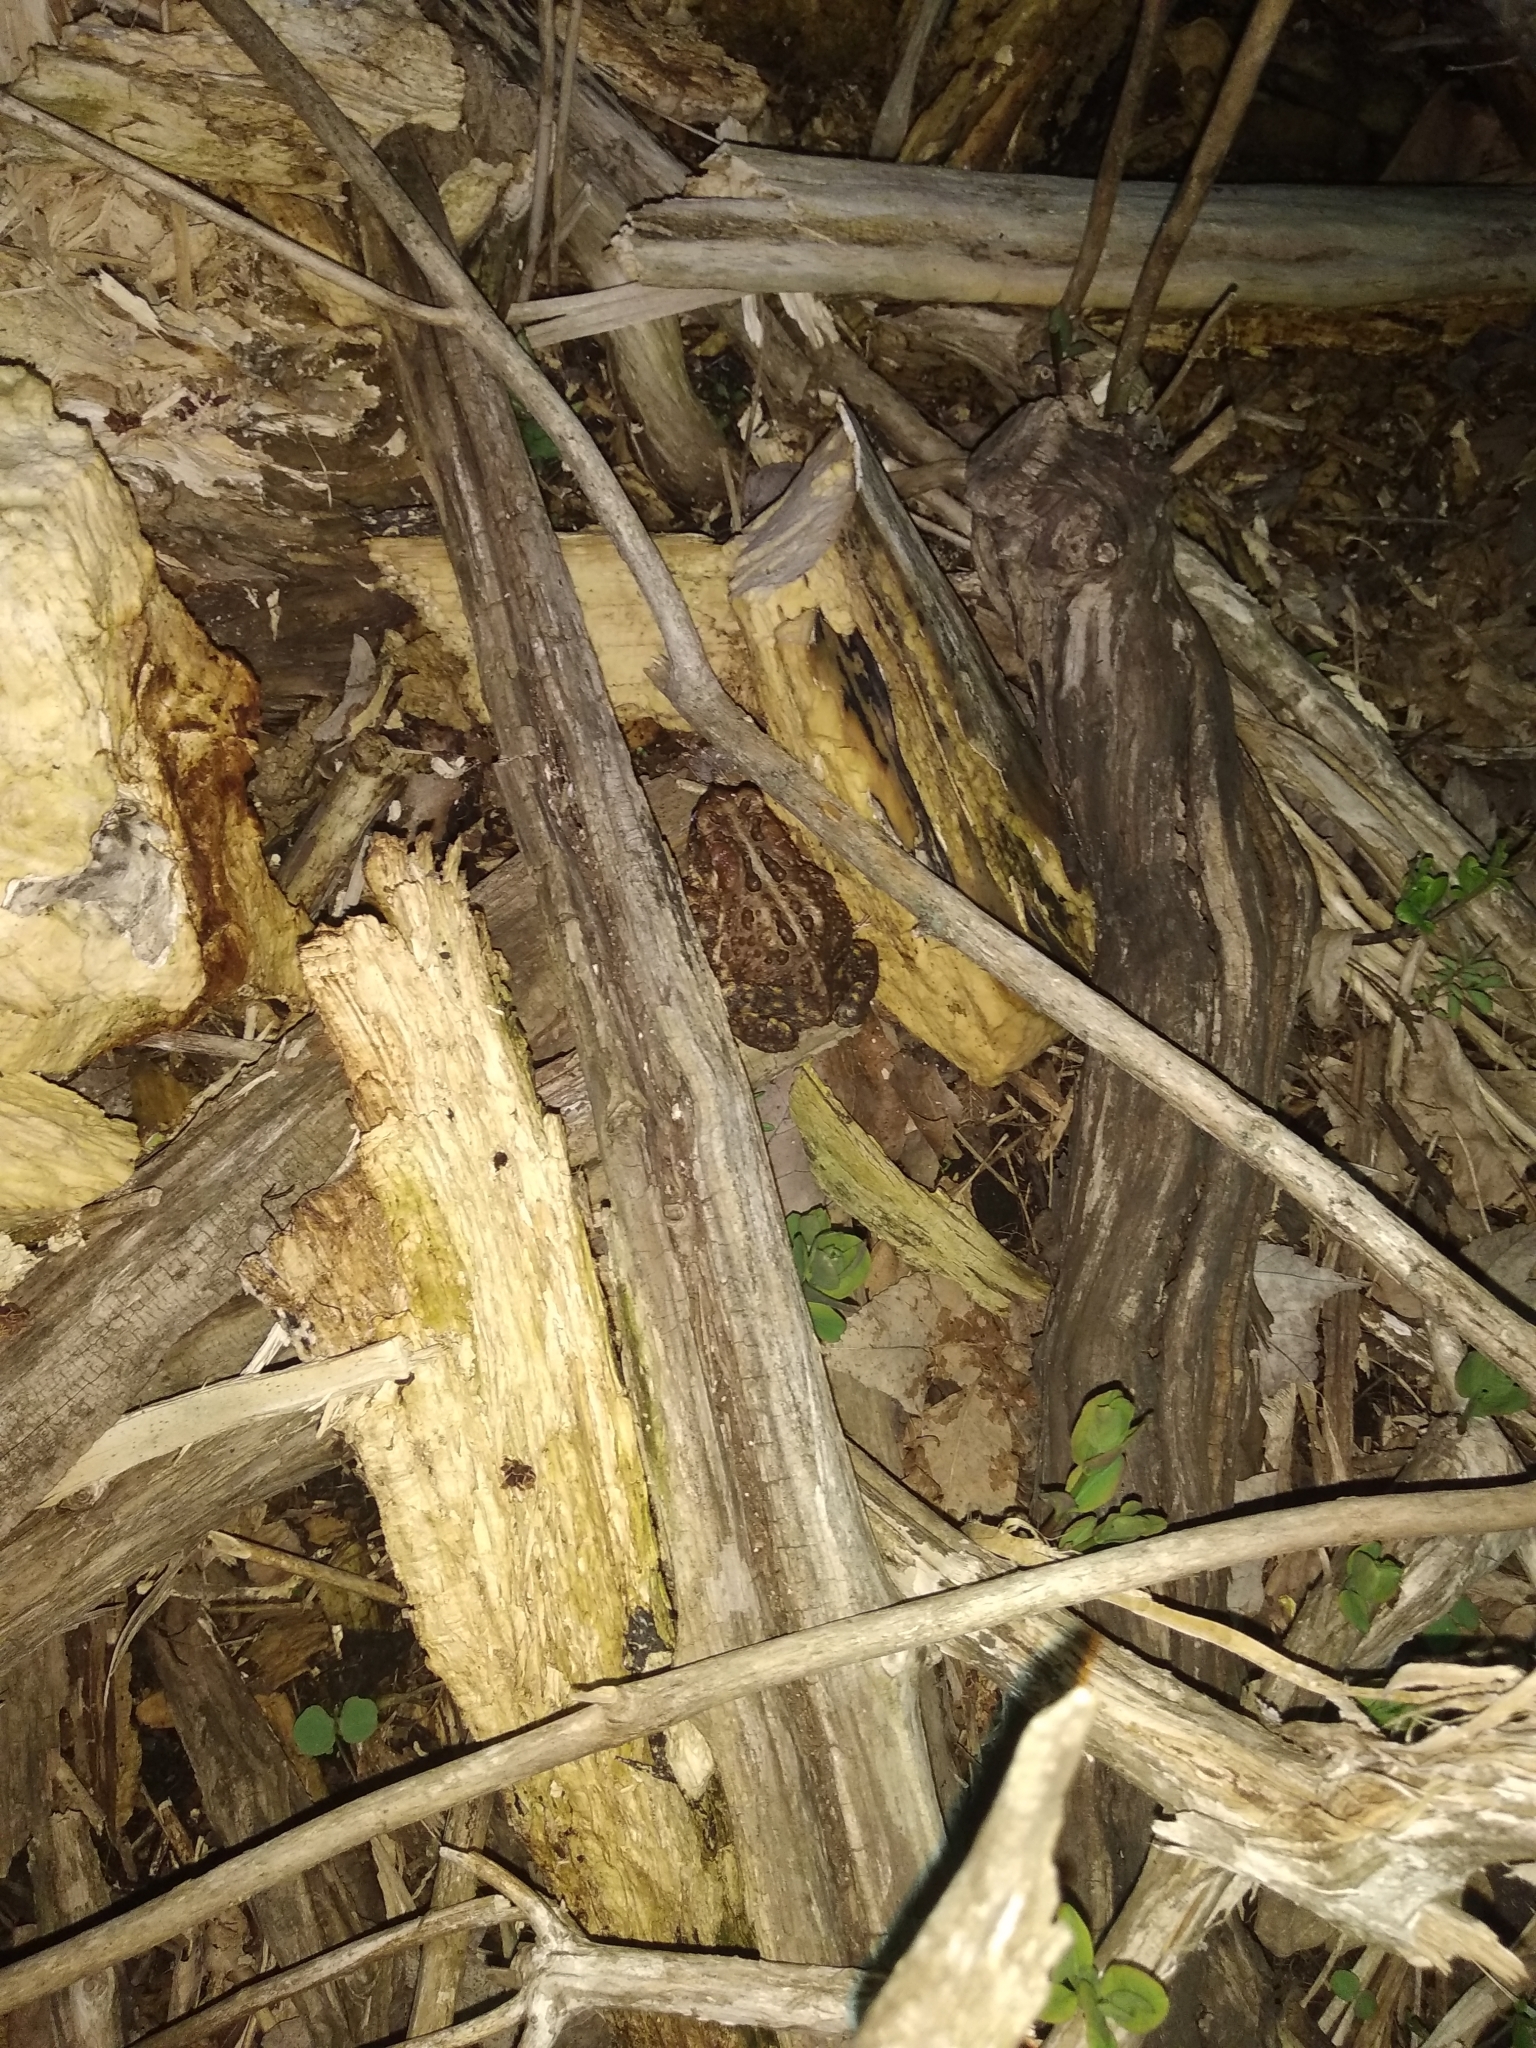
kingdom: Animalia
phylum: Chordata
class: Amphibia
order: Anura
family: Bufonidae
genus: Anaxyrus
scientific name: Anaxyrus americanus
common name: American toad
